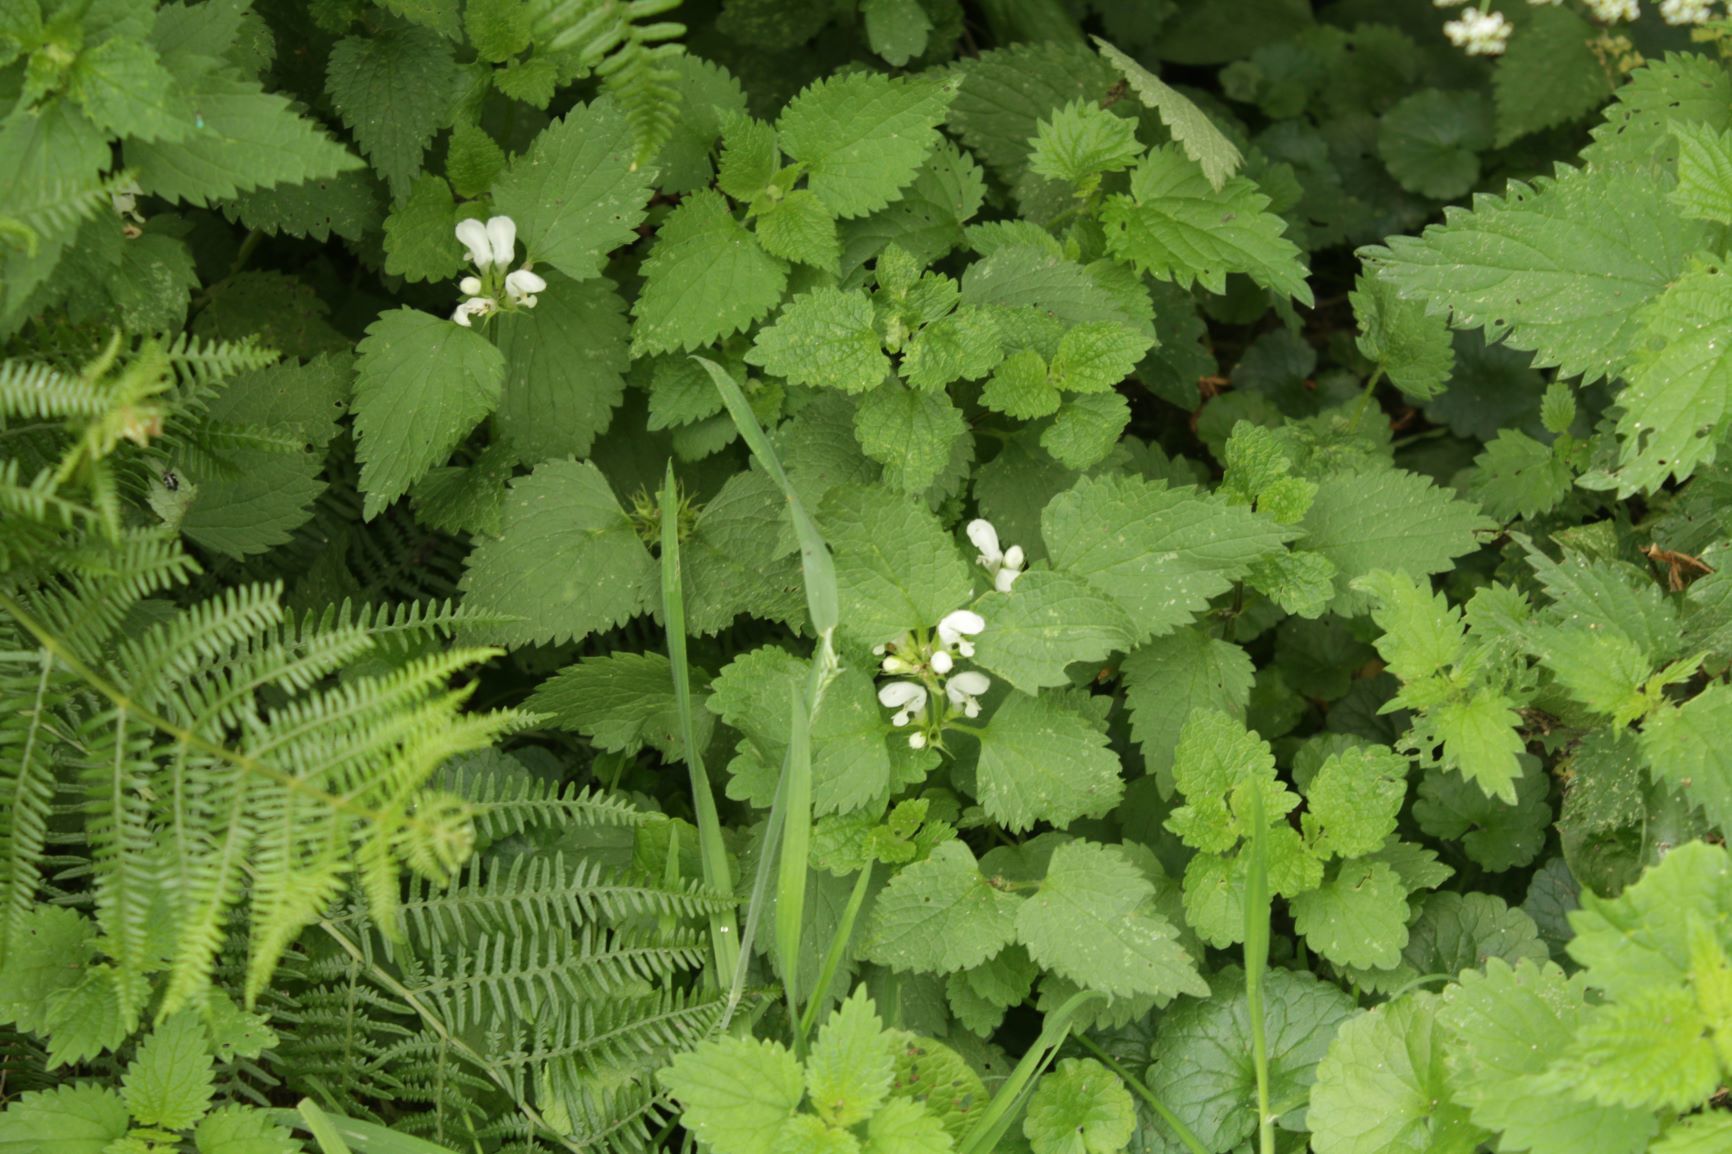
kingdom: Plantae
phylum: Tracheophyta
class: Magnoliopsida
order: Lamiales
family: Lamiaceae
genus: Lamium
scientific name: Lamium album
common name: White dead-nettle
